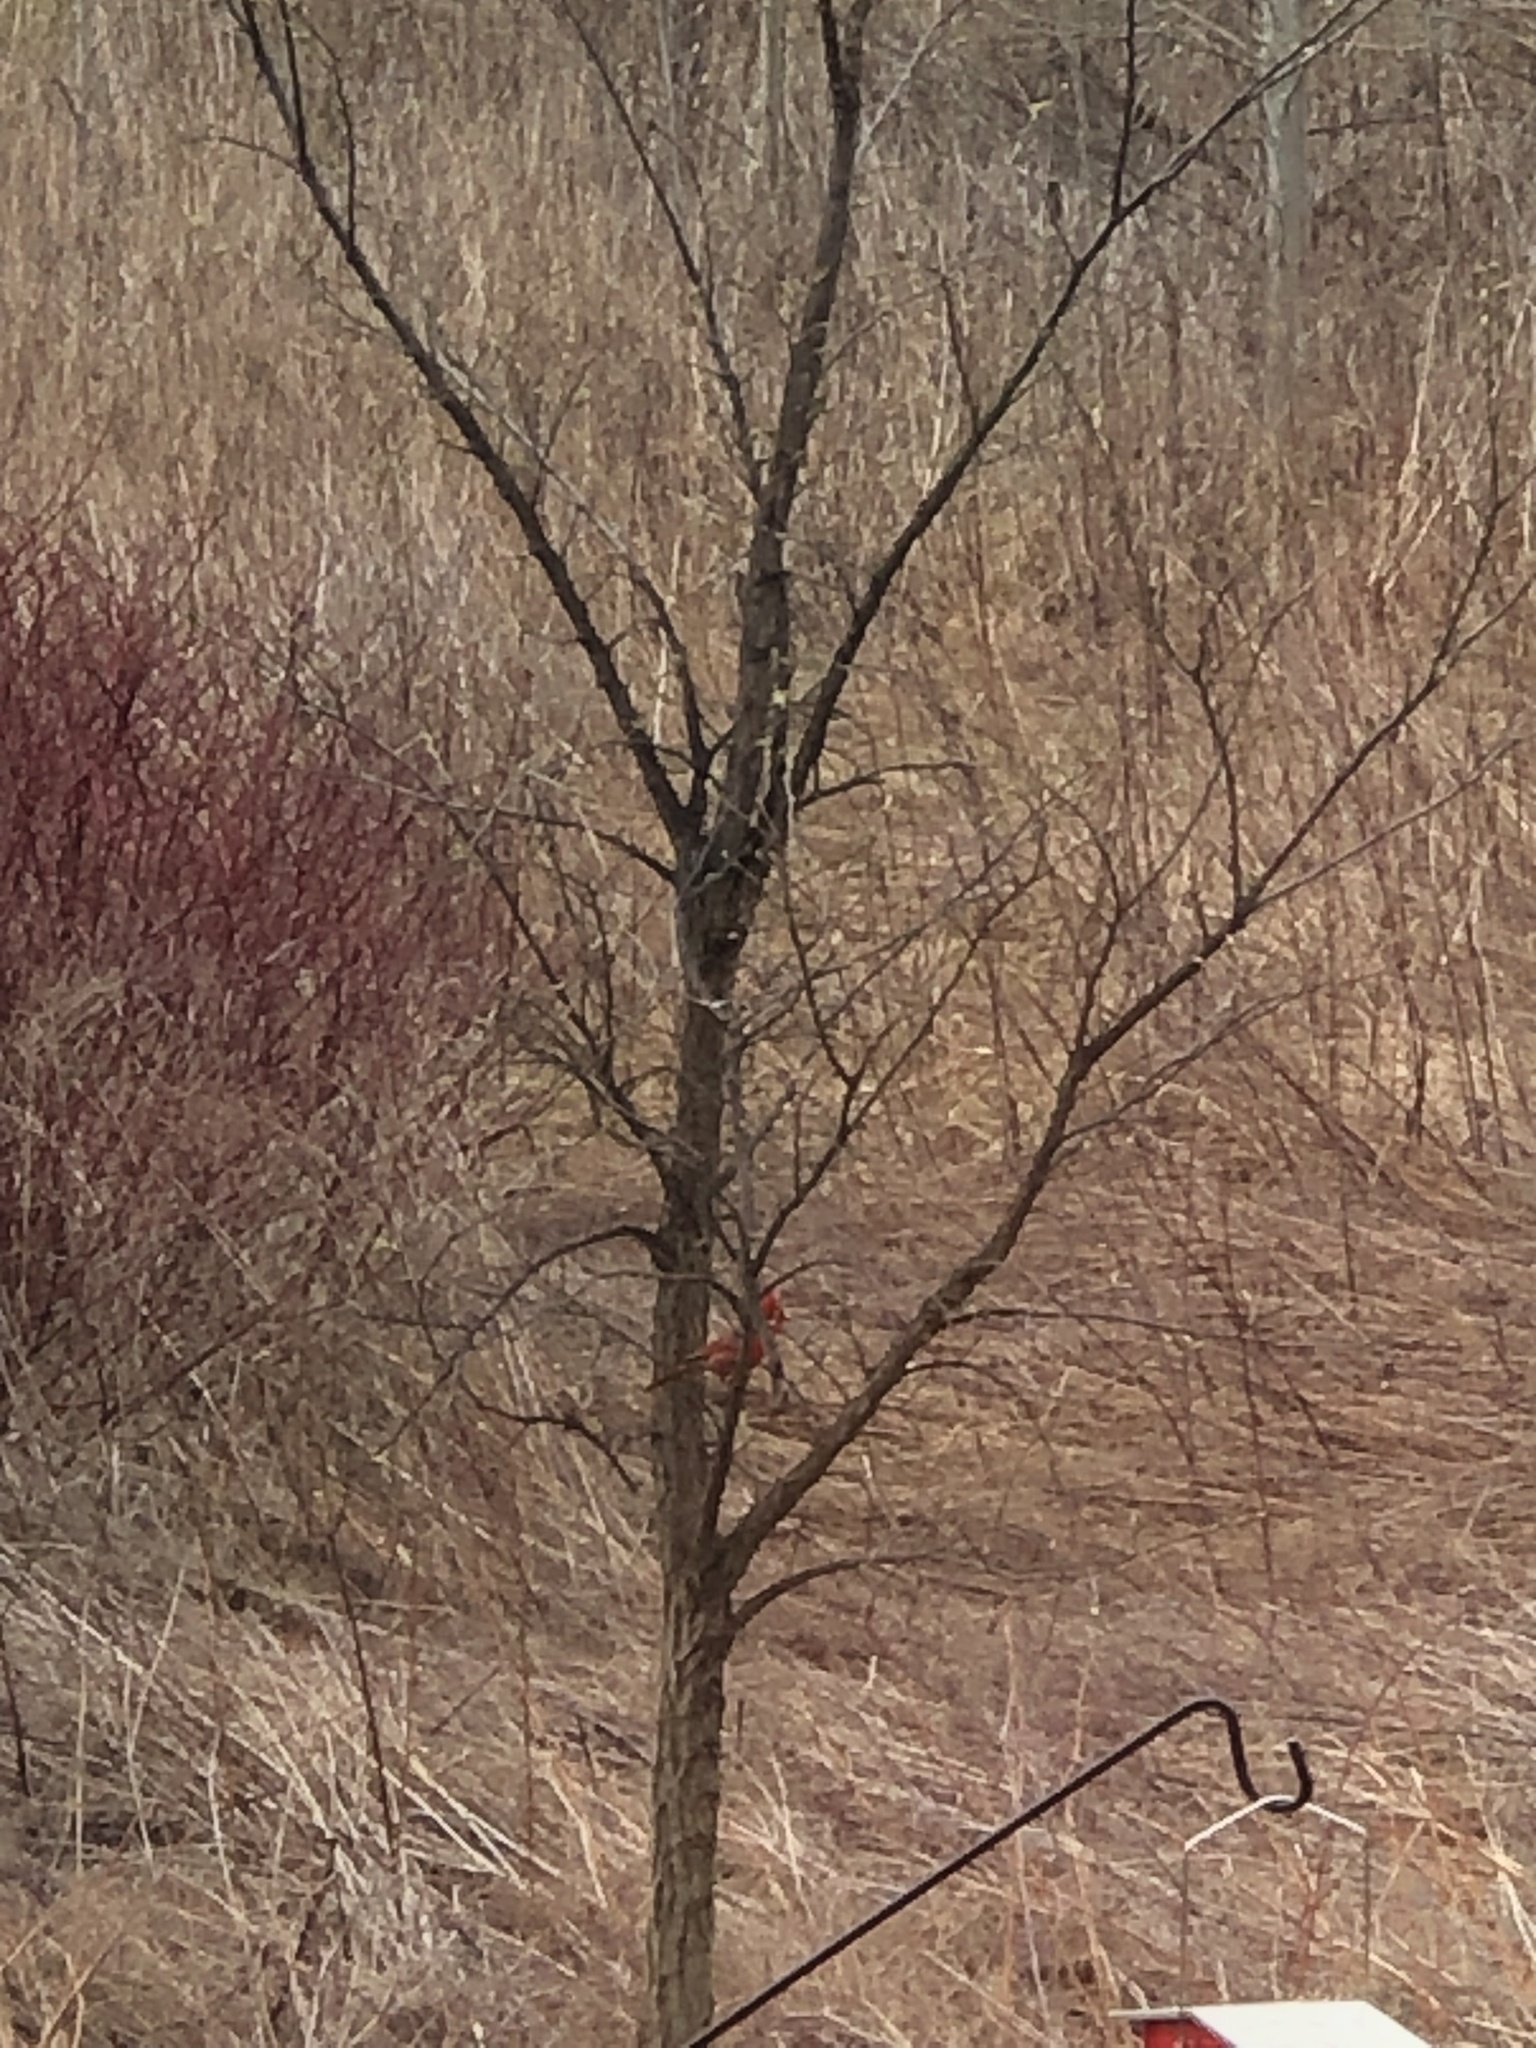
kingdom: Animalia
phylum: Chordata
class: Aves
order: Passeriformes
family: Cardinalidae
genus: Cardinalis
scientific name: Cardinalis cardinalis
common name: Northern cardinal
